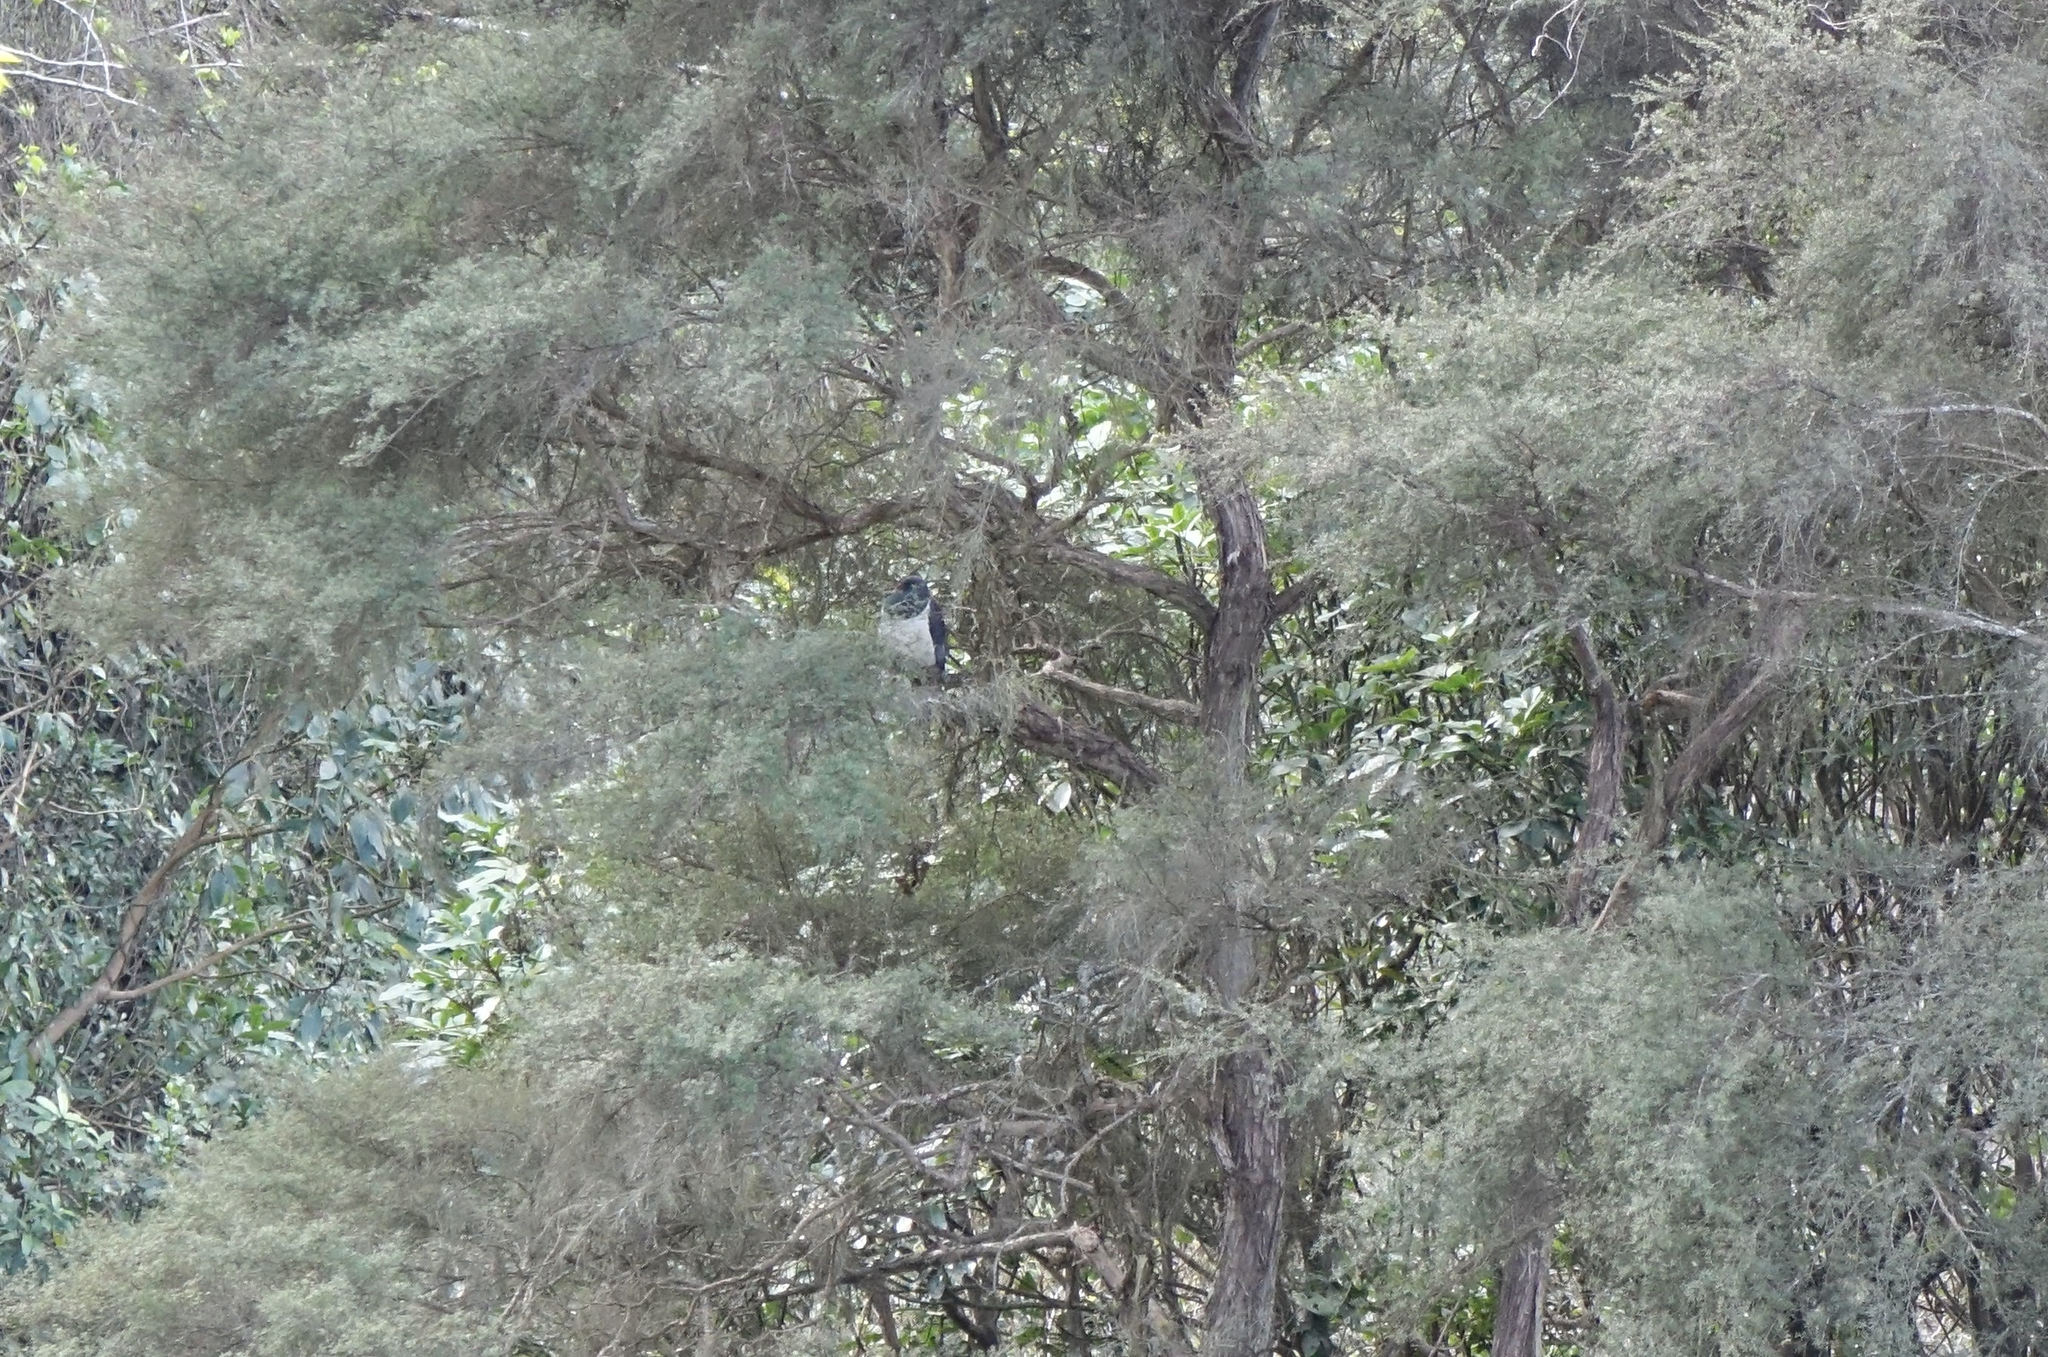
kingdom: Animalia
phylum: Chordata
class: Aves
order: Columbiformes
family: Columbidae
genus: Hemiphaga
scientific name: Hemiphaga novaeseelandiae
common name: New zealand pigeon
